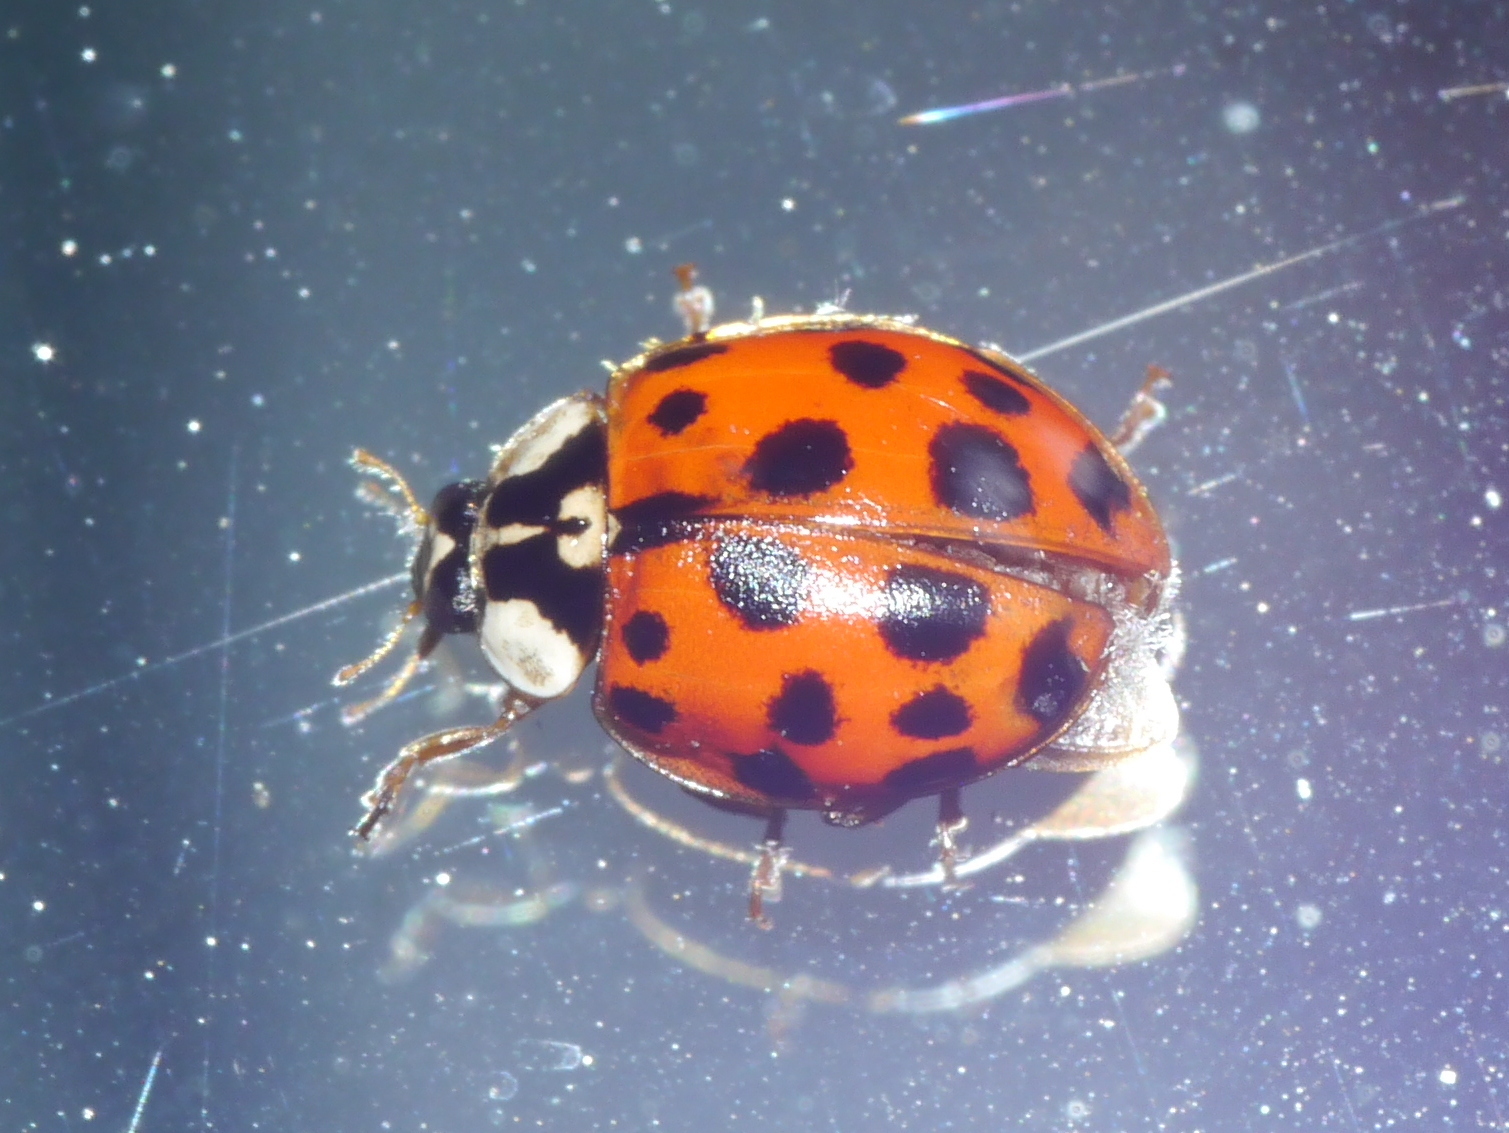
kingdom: Animalia
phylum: Arthropoda
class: Insecta
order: Coleoptera
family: Coccinellidae
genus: Harmonia
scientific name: Harmonia axyridis
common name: Harlequin ladybird
